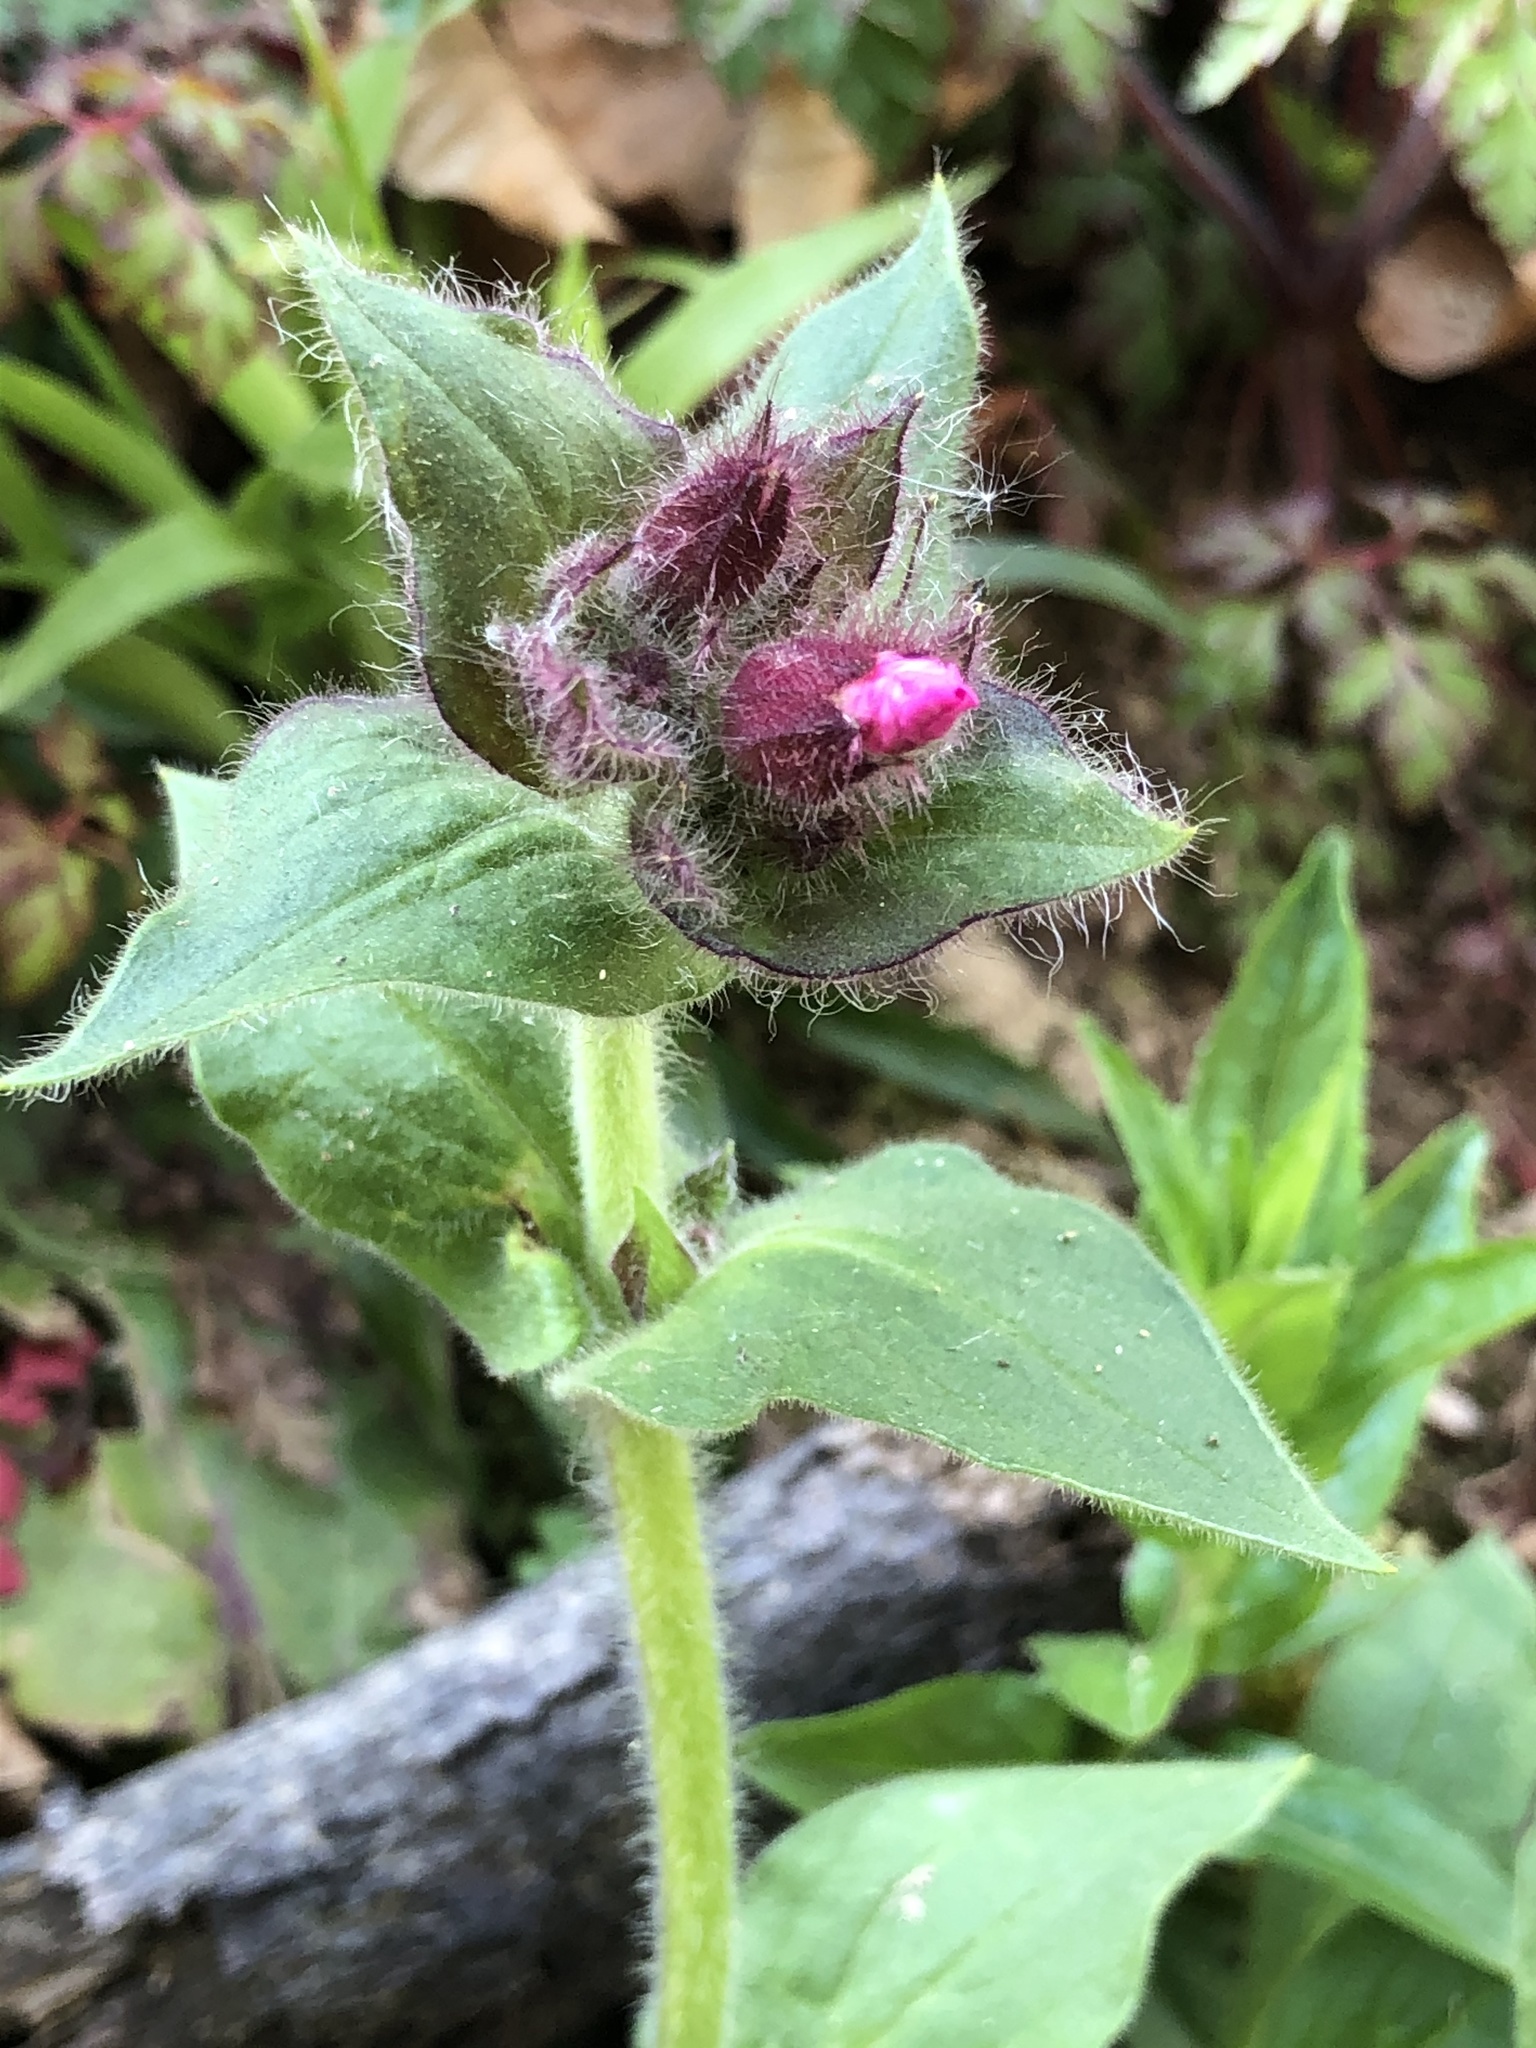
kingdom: Plantae
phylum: Tracheophyta
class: Magnoliopsida
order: Caryophyllales
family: Caryophyllaceae
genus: Silene
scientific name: Silene dioica
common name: Red campion
